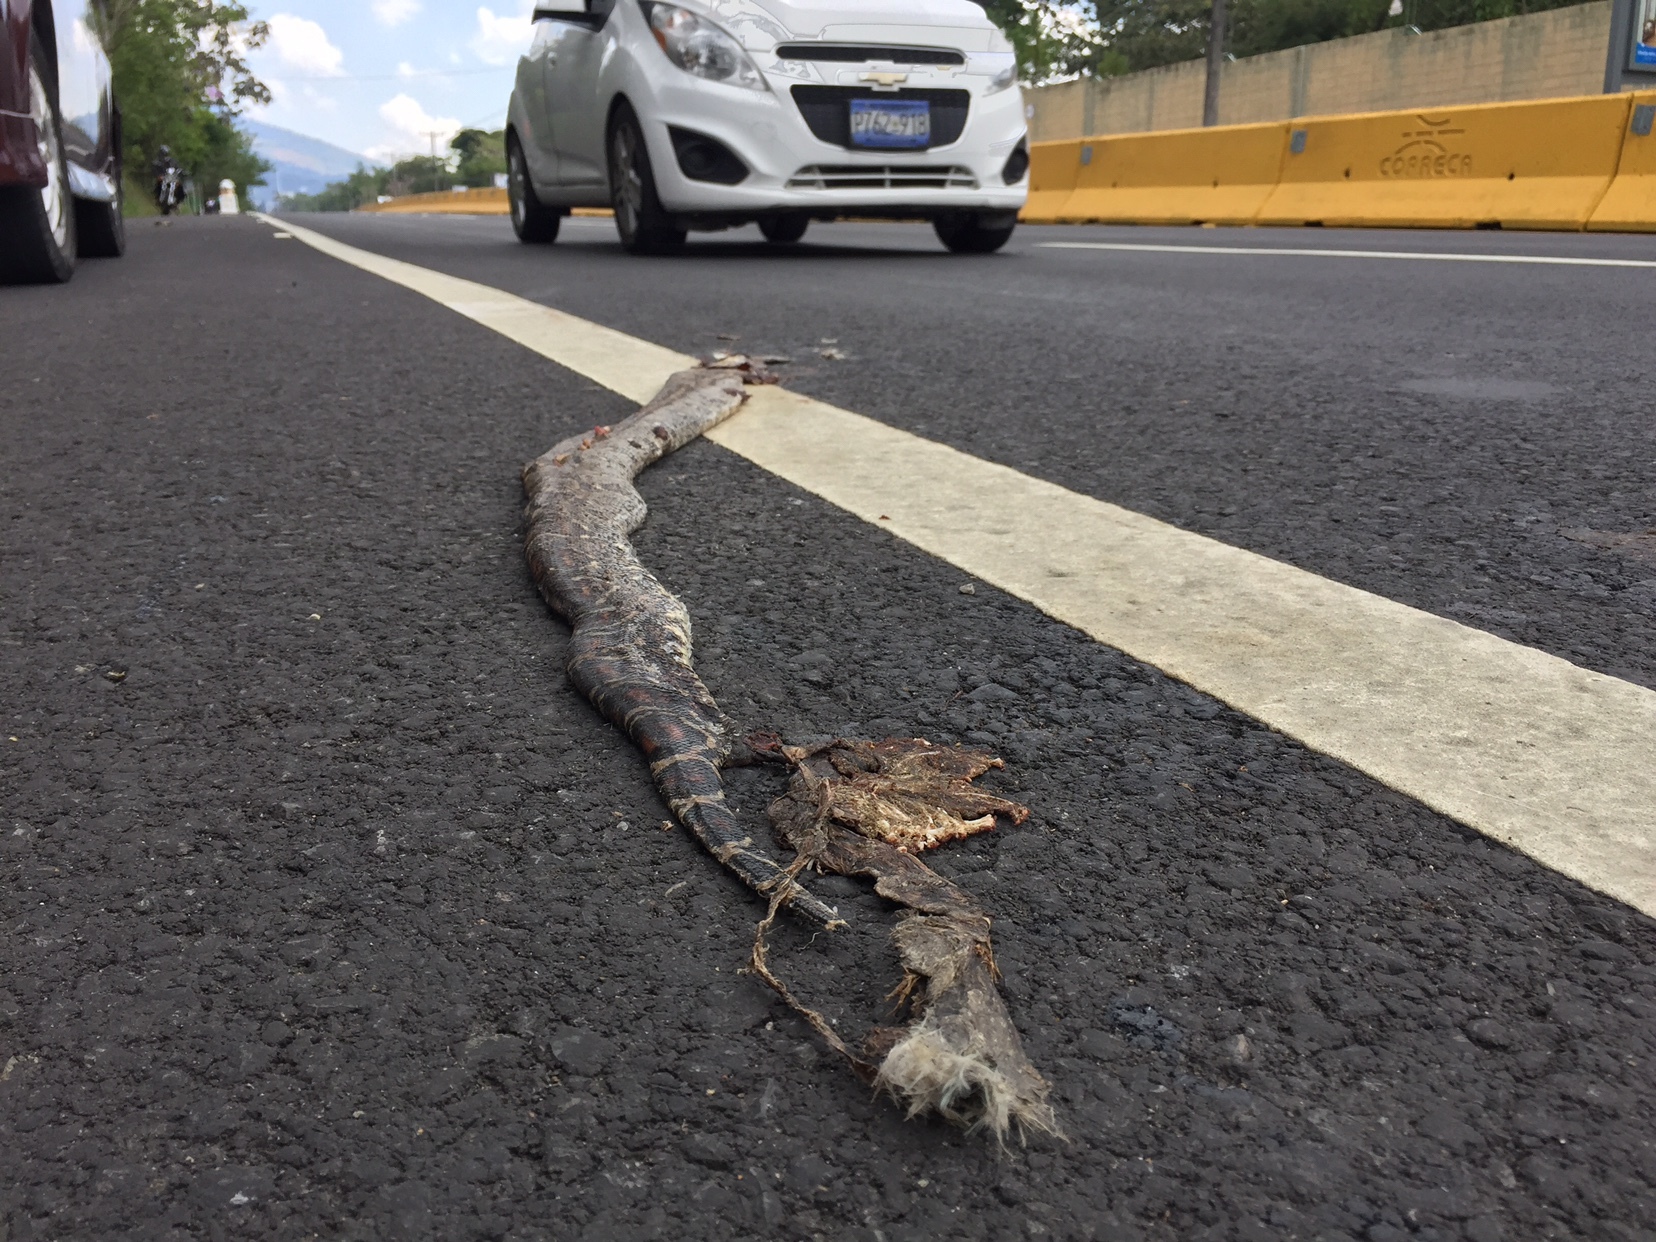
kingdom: Animalia
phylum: Chordata
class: Squamata
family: Boidae
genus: Boa
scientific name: Boa imperator
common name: Central american boa
